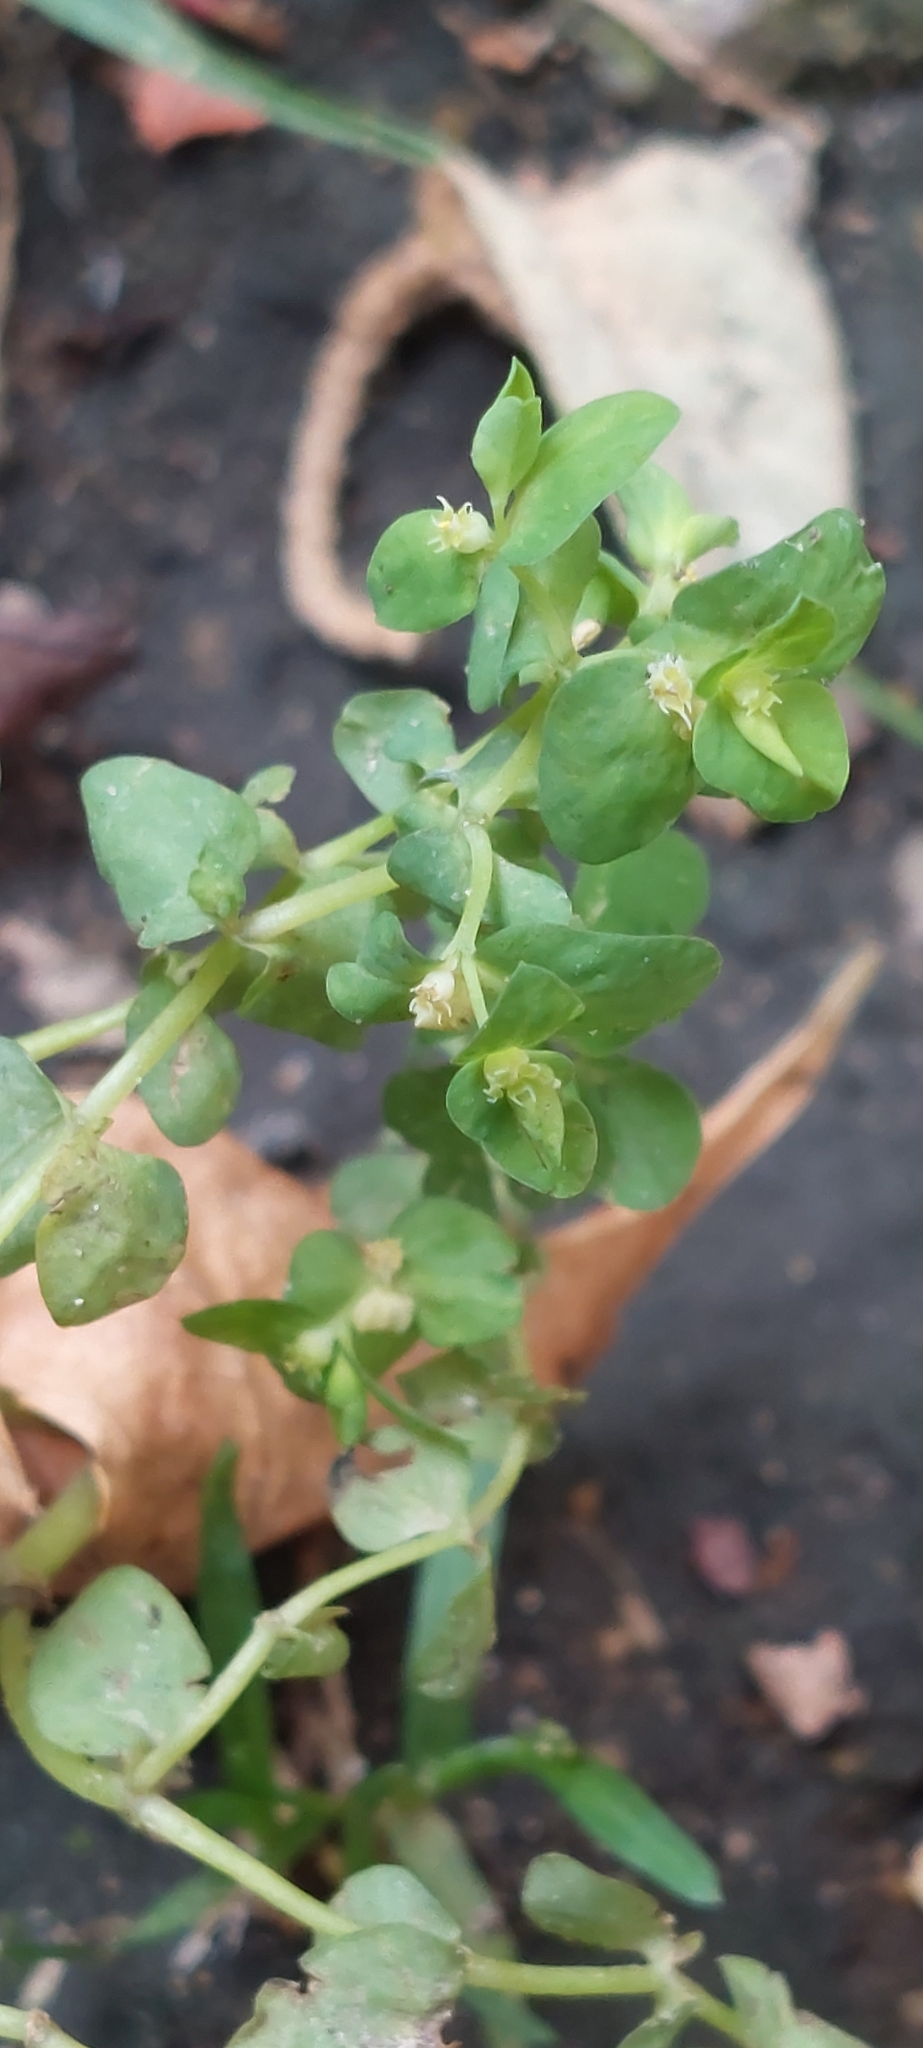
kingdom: Plantae
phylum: Tracheophyta
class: Magnoliopsida
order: Malpighiales
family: Euphorbiaceae
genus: Euphorbia
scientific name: Euphorbia peplus
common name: Petty spurge
